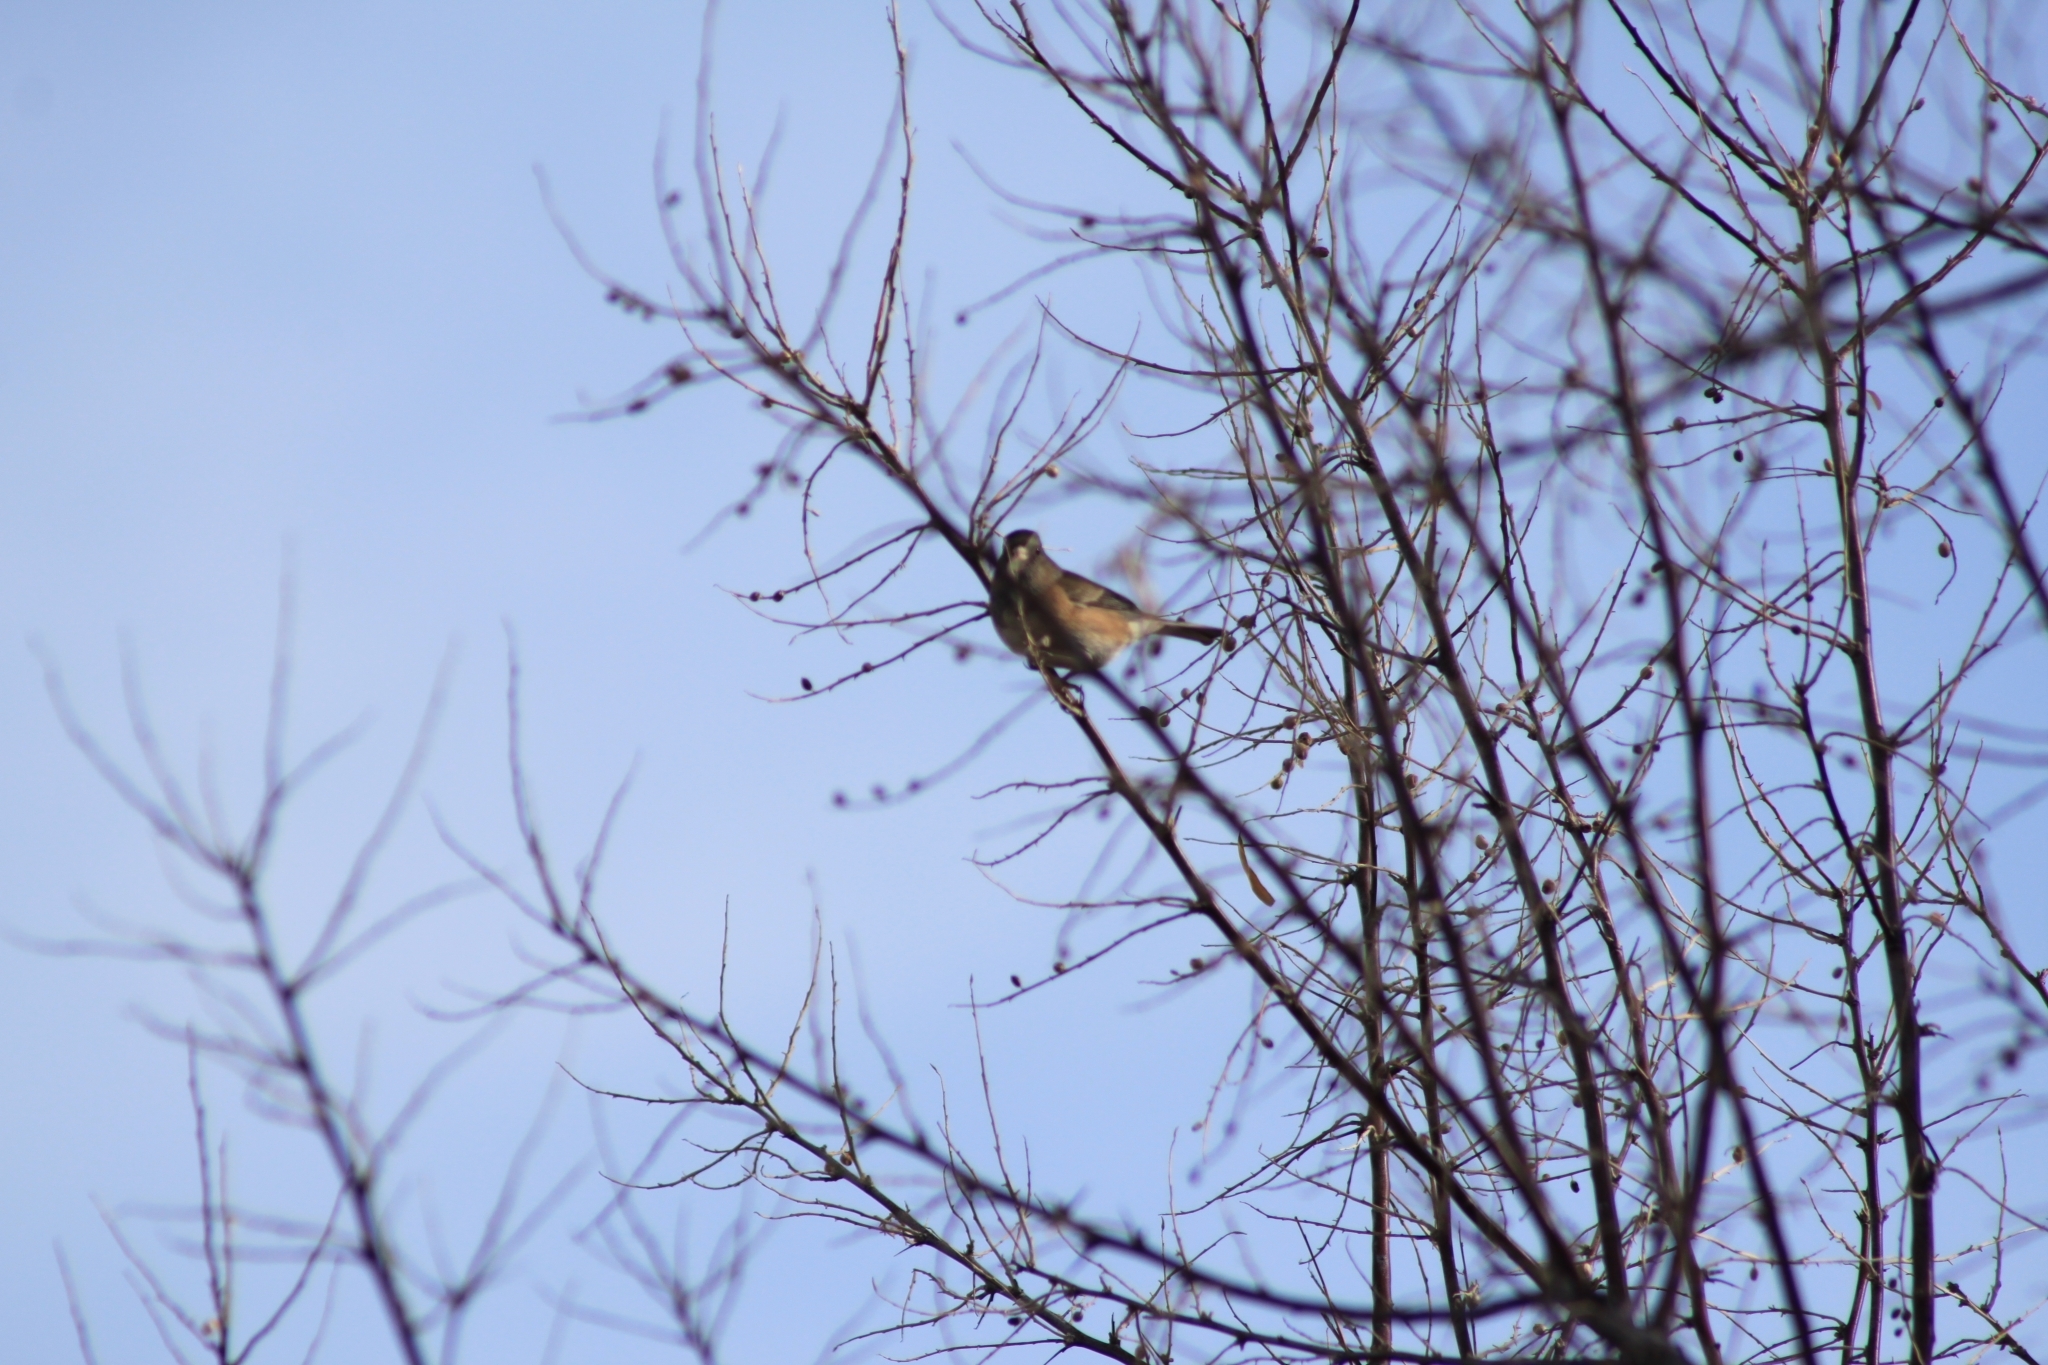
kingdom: Animalia
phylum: Chordata
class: Aves
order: Passeriformes
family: Passerellidae
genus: Junco
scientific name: Junco hyemalis
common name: Dark-eyed junco
